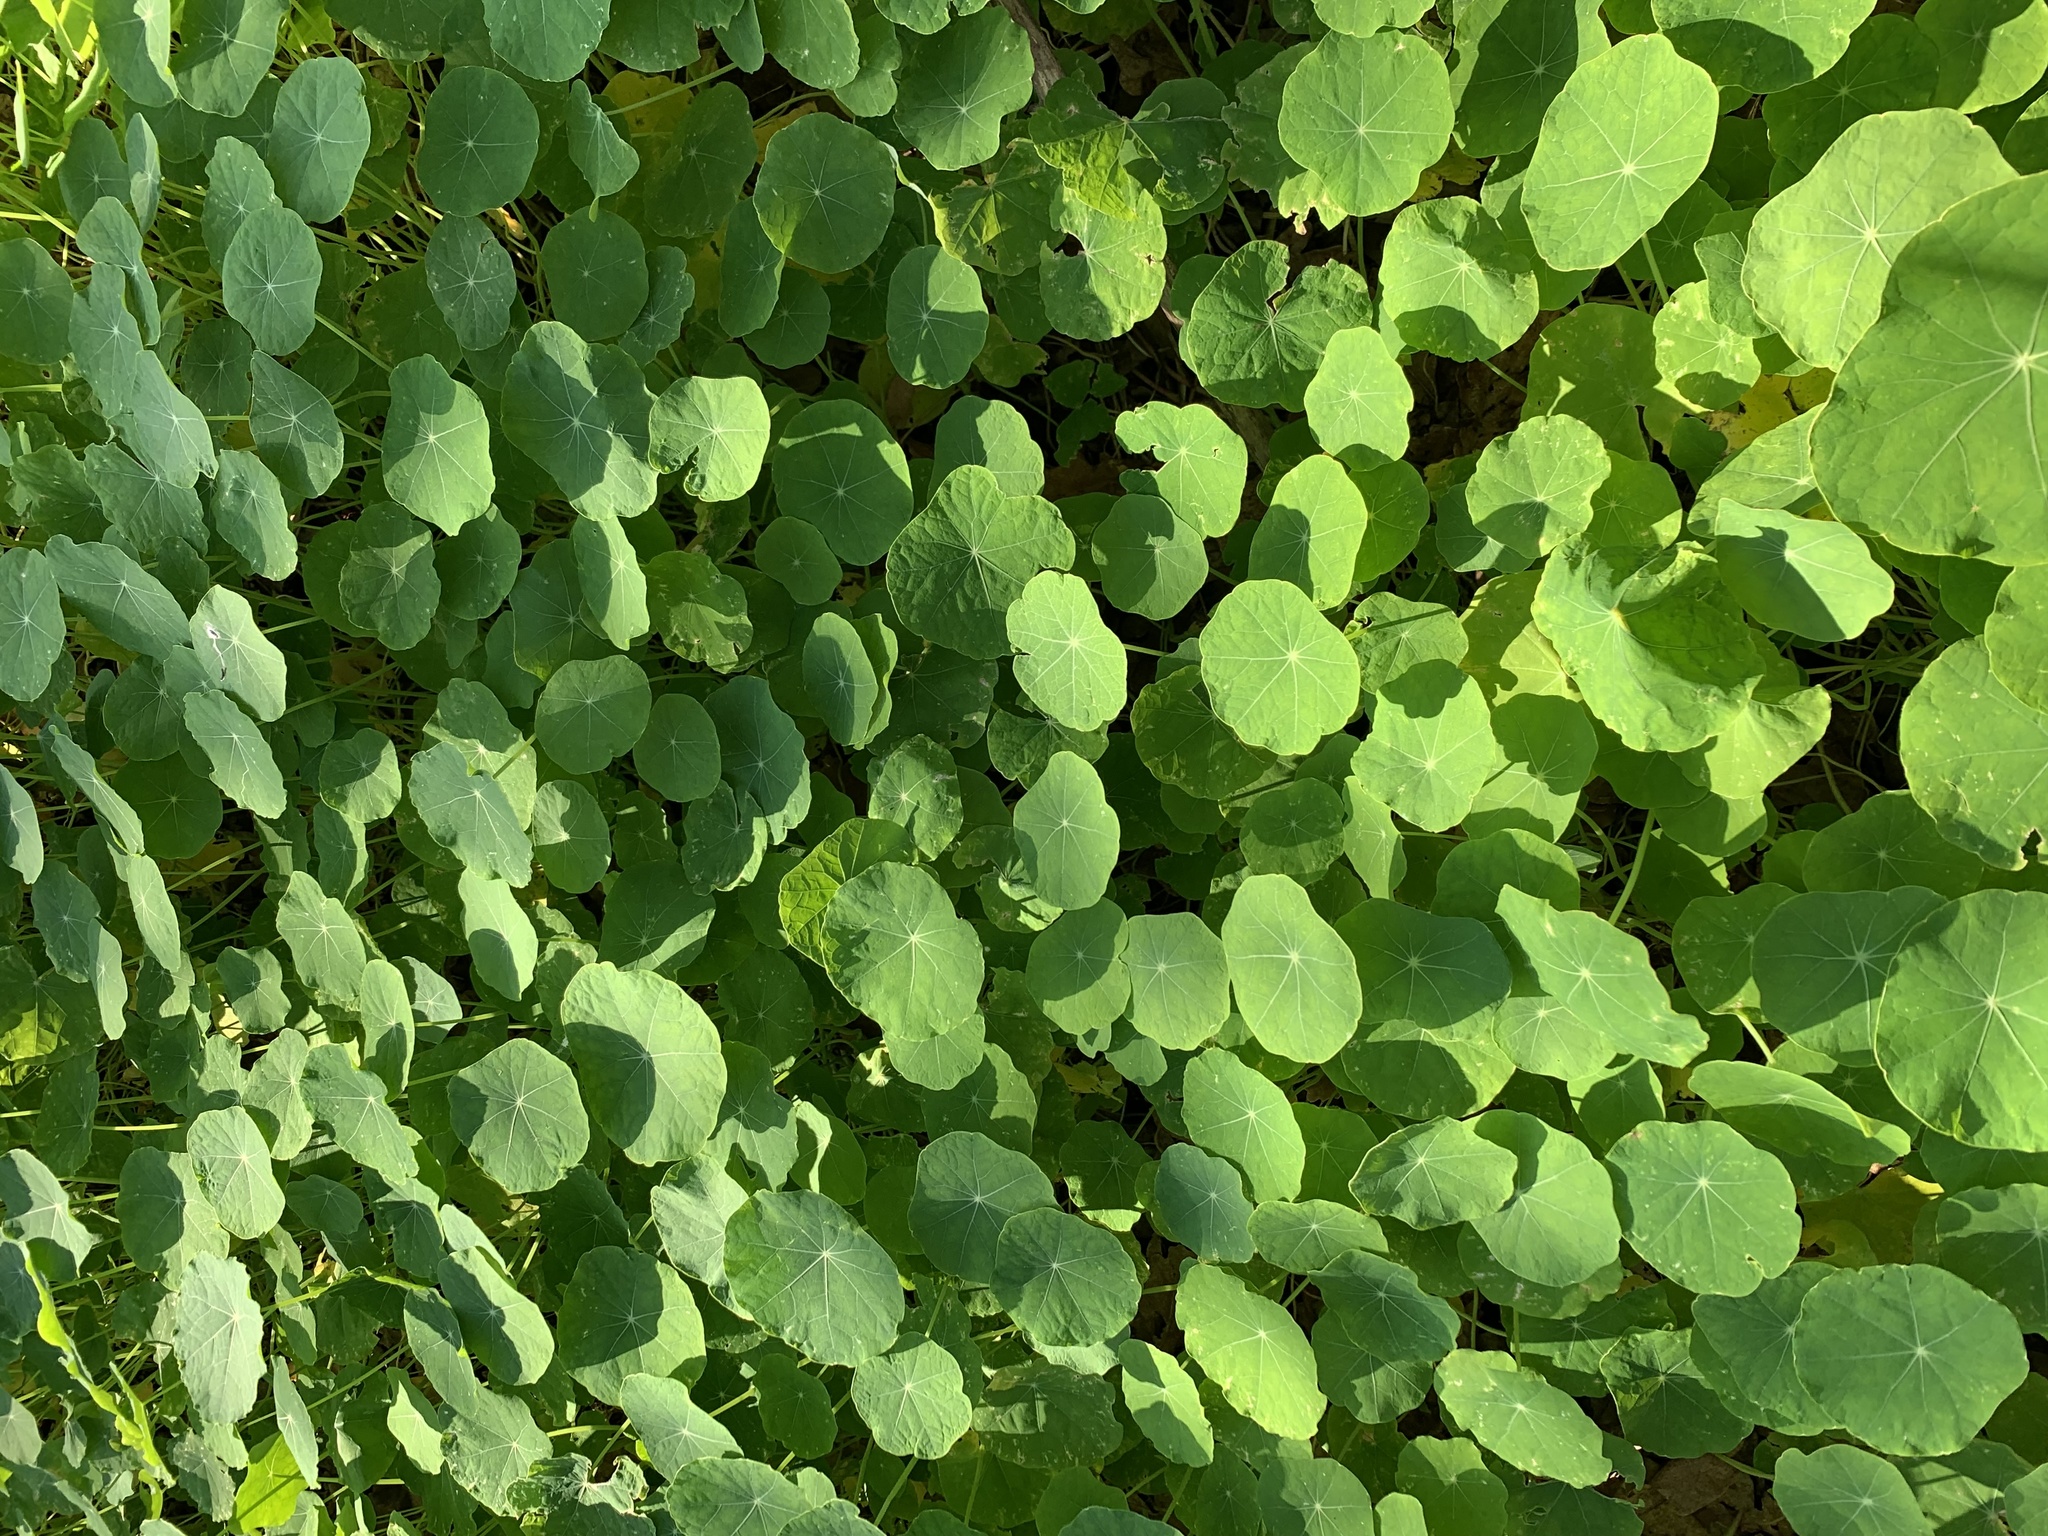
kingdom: Plantae
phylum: Tracheophyta
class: Magnoliopsida
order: Brassicales
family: Tropaeolaceae
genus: Tropaeolum
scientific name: Tropaeolum majus
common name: Nasturtium
